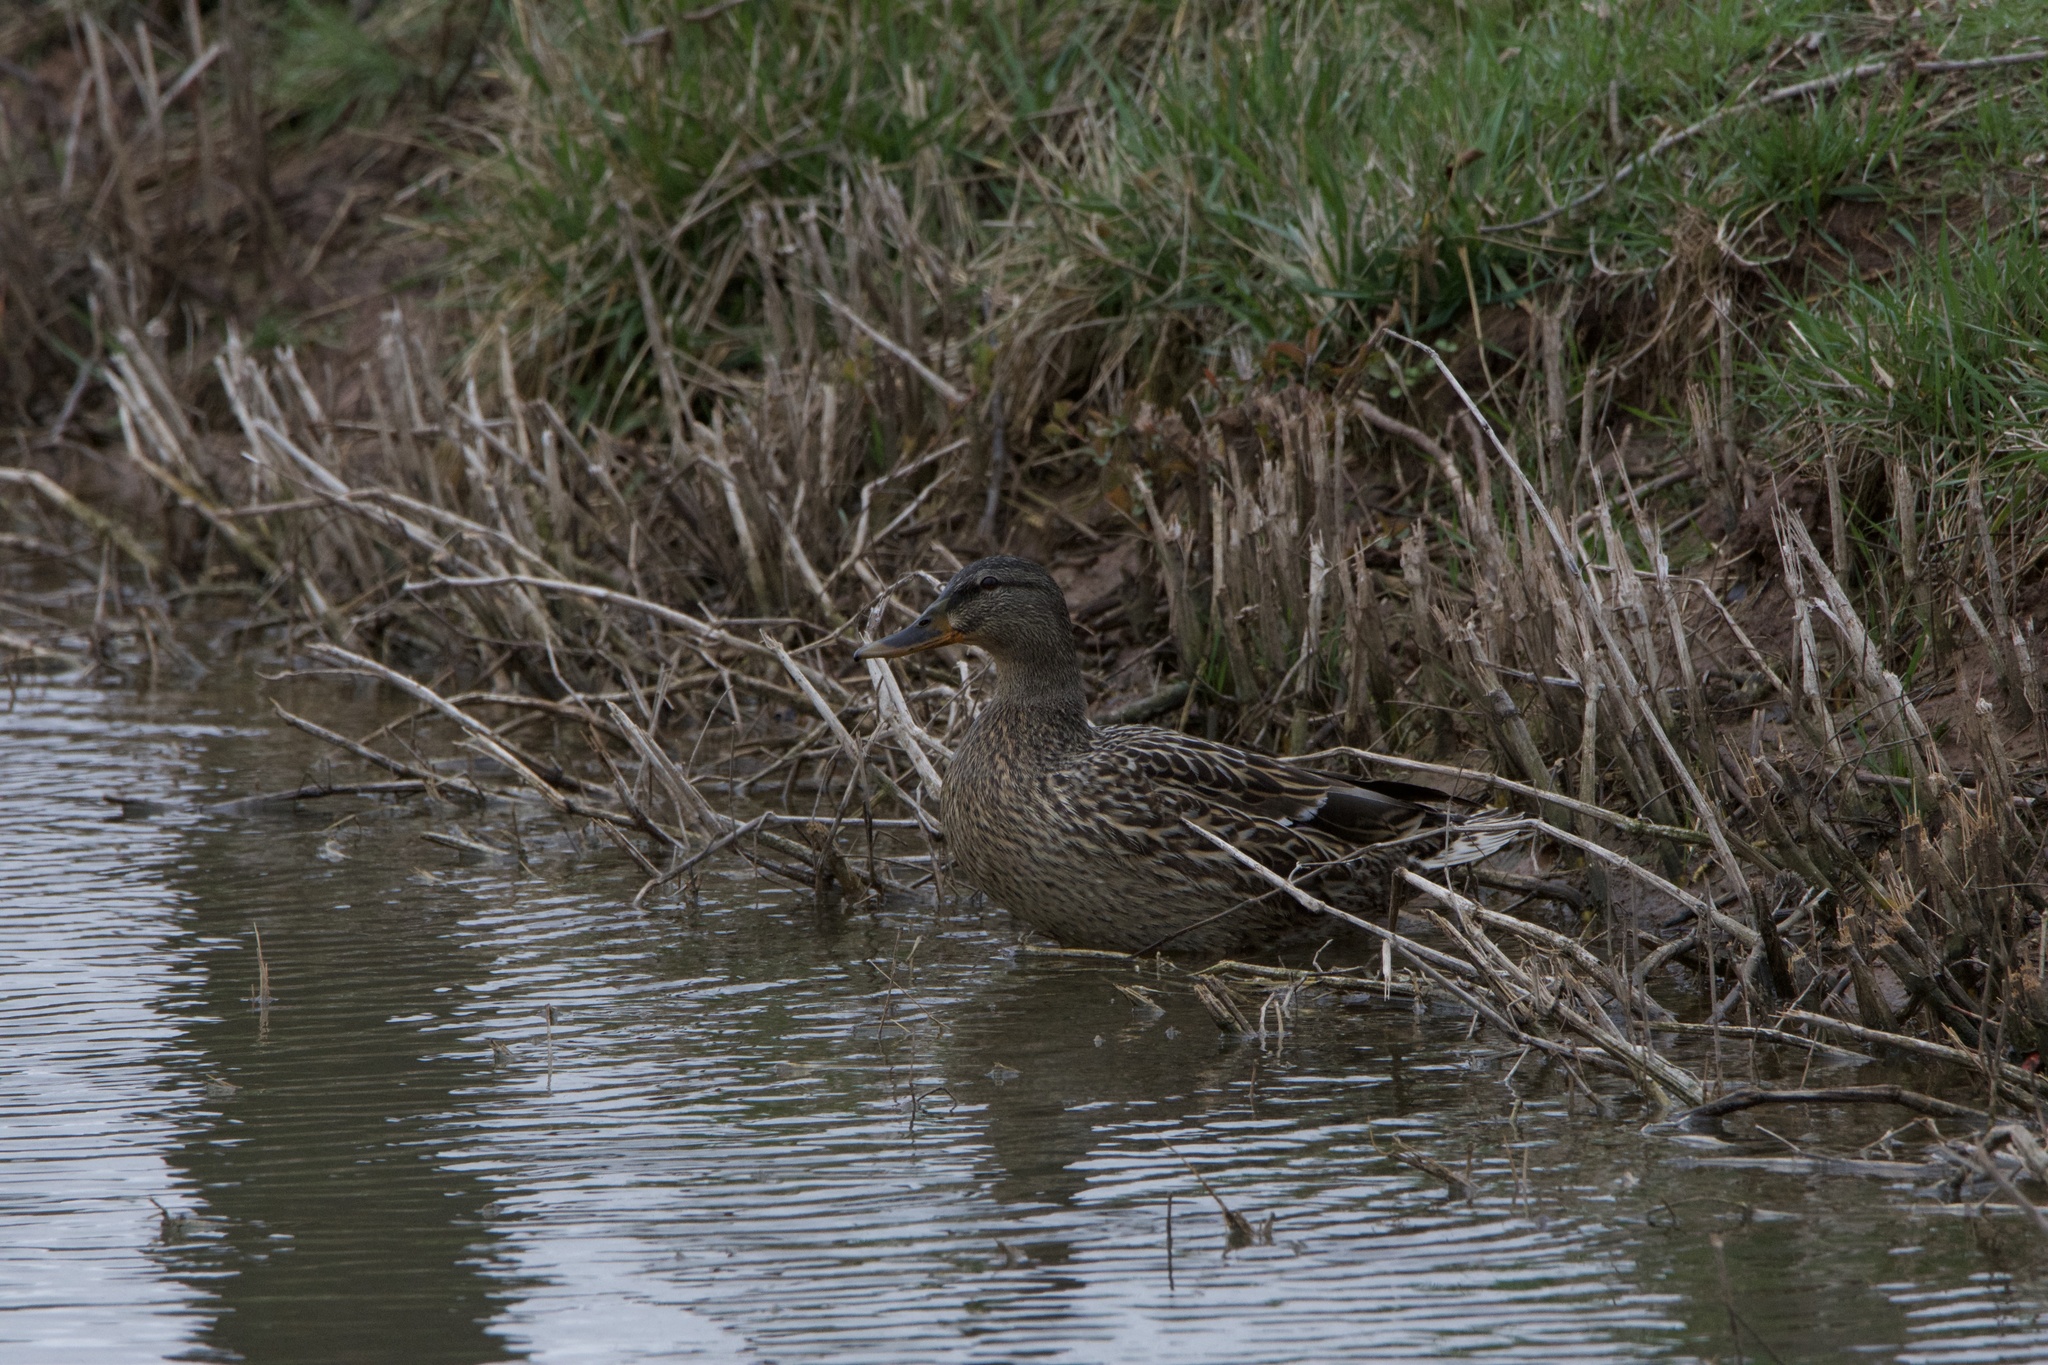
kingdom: Animalia
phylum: Chordata
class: Aves
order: Anseriformes
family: Anatidae
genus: Anas
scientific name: Anas platyrhynchos
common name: Mallard
